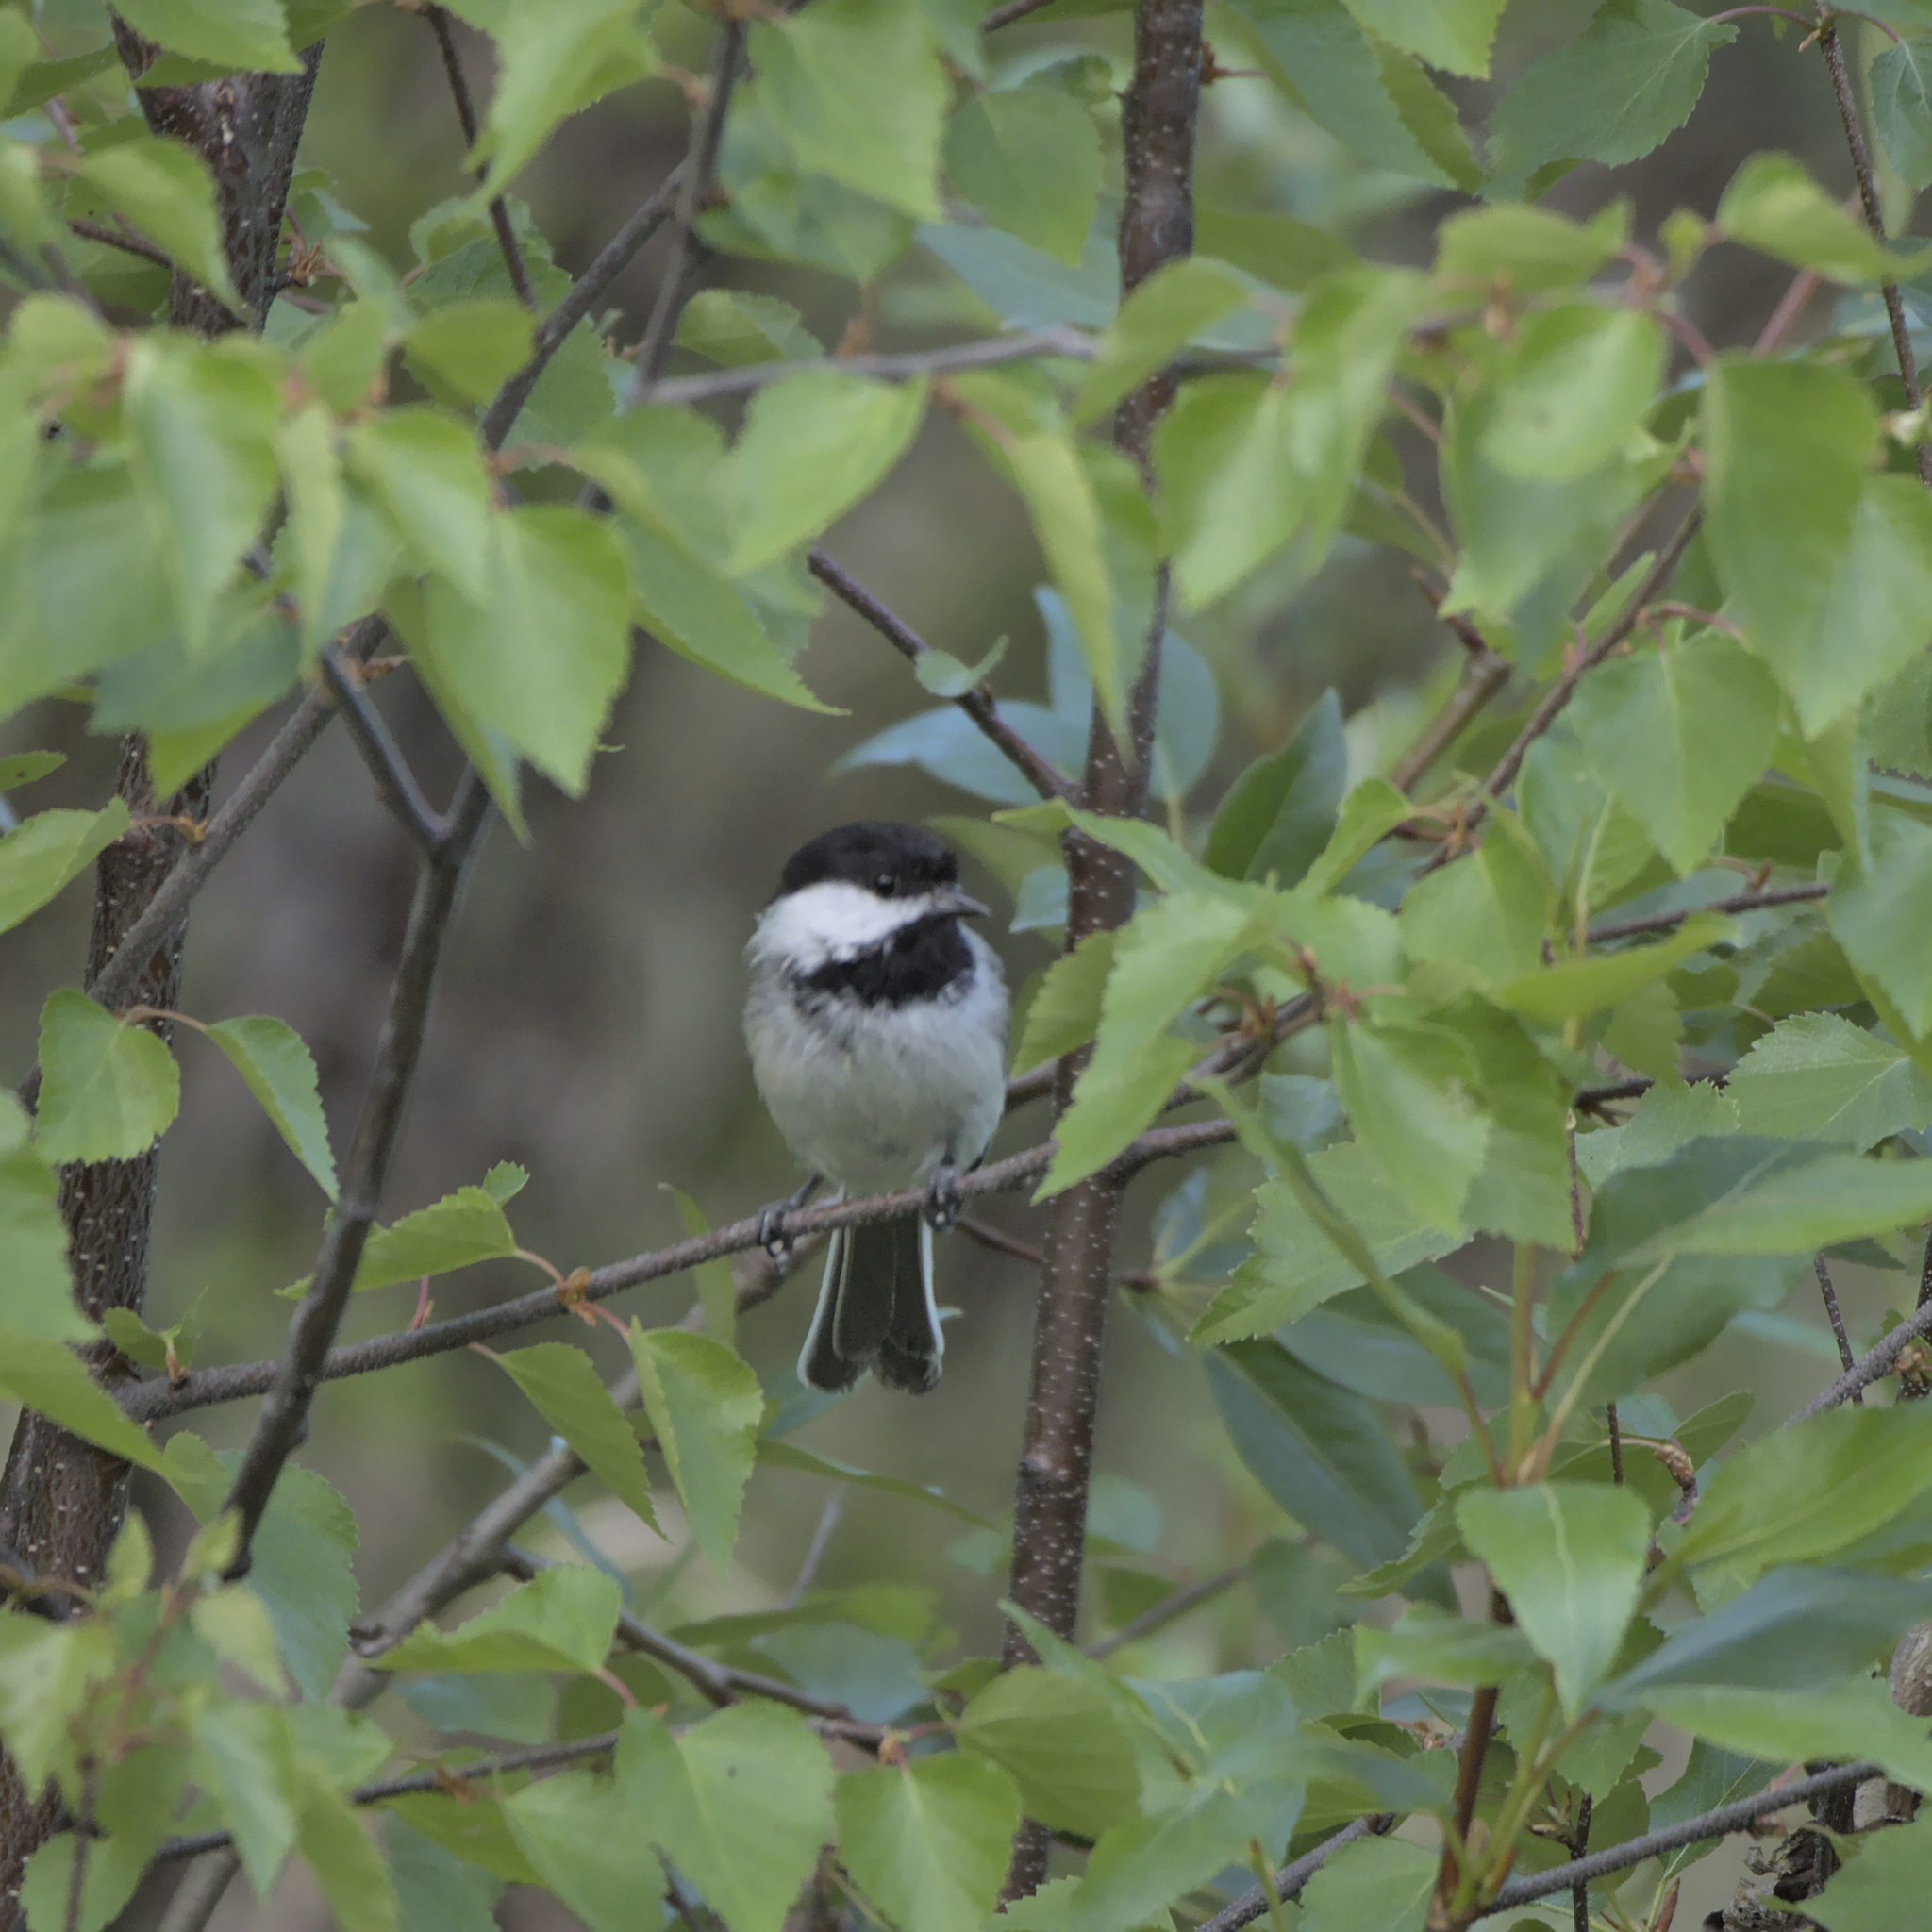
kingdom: Animalia
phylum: Chordata
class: Aves
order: Passeriformes
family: Paridae
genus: Poecile
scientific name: Poecile atricapillus
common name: Black-capped chickadee
